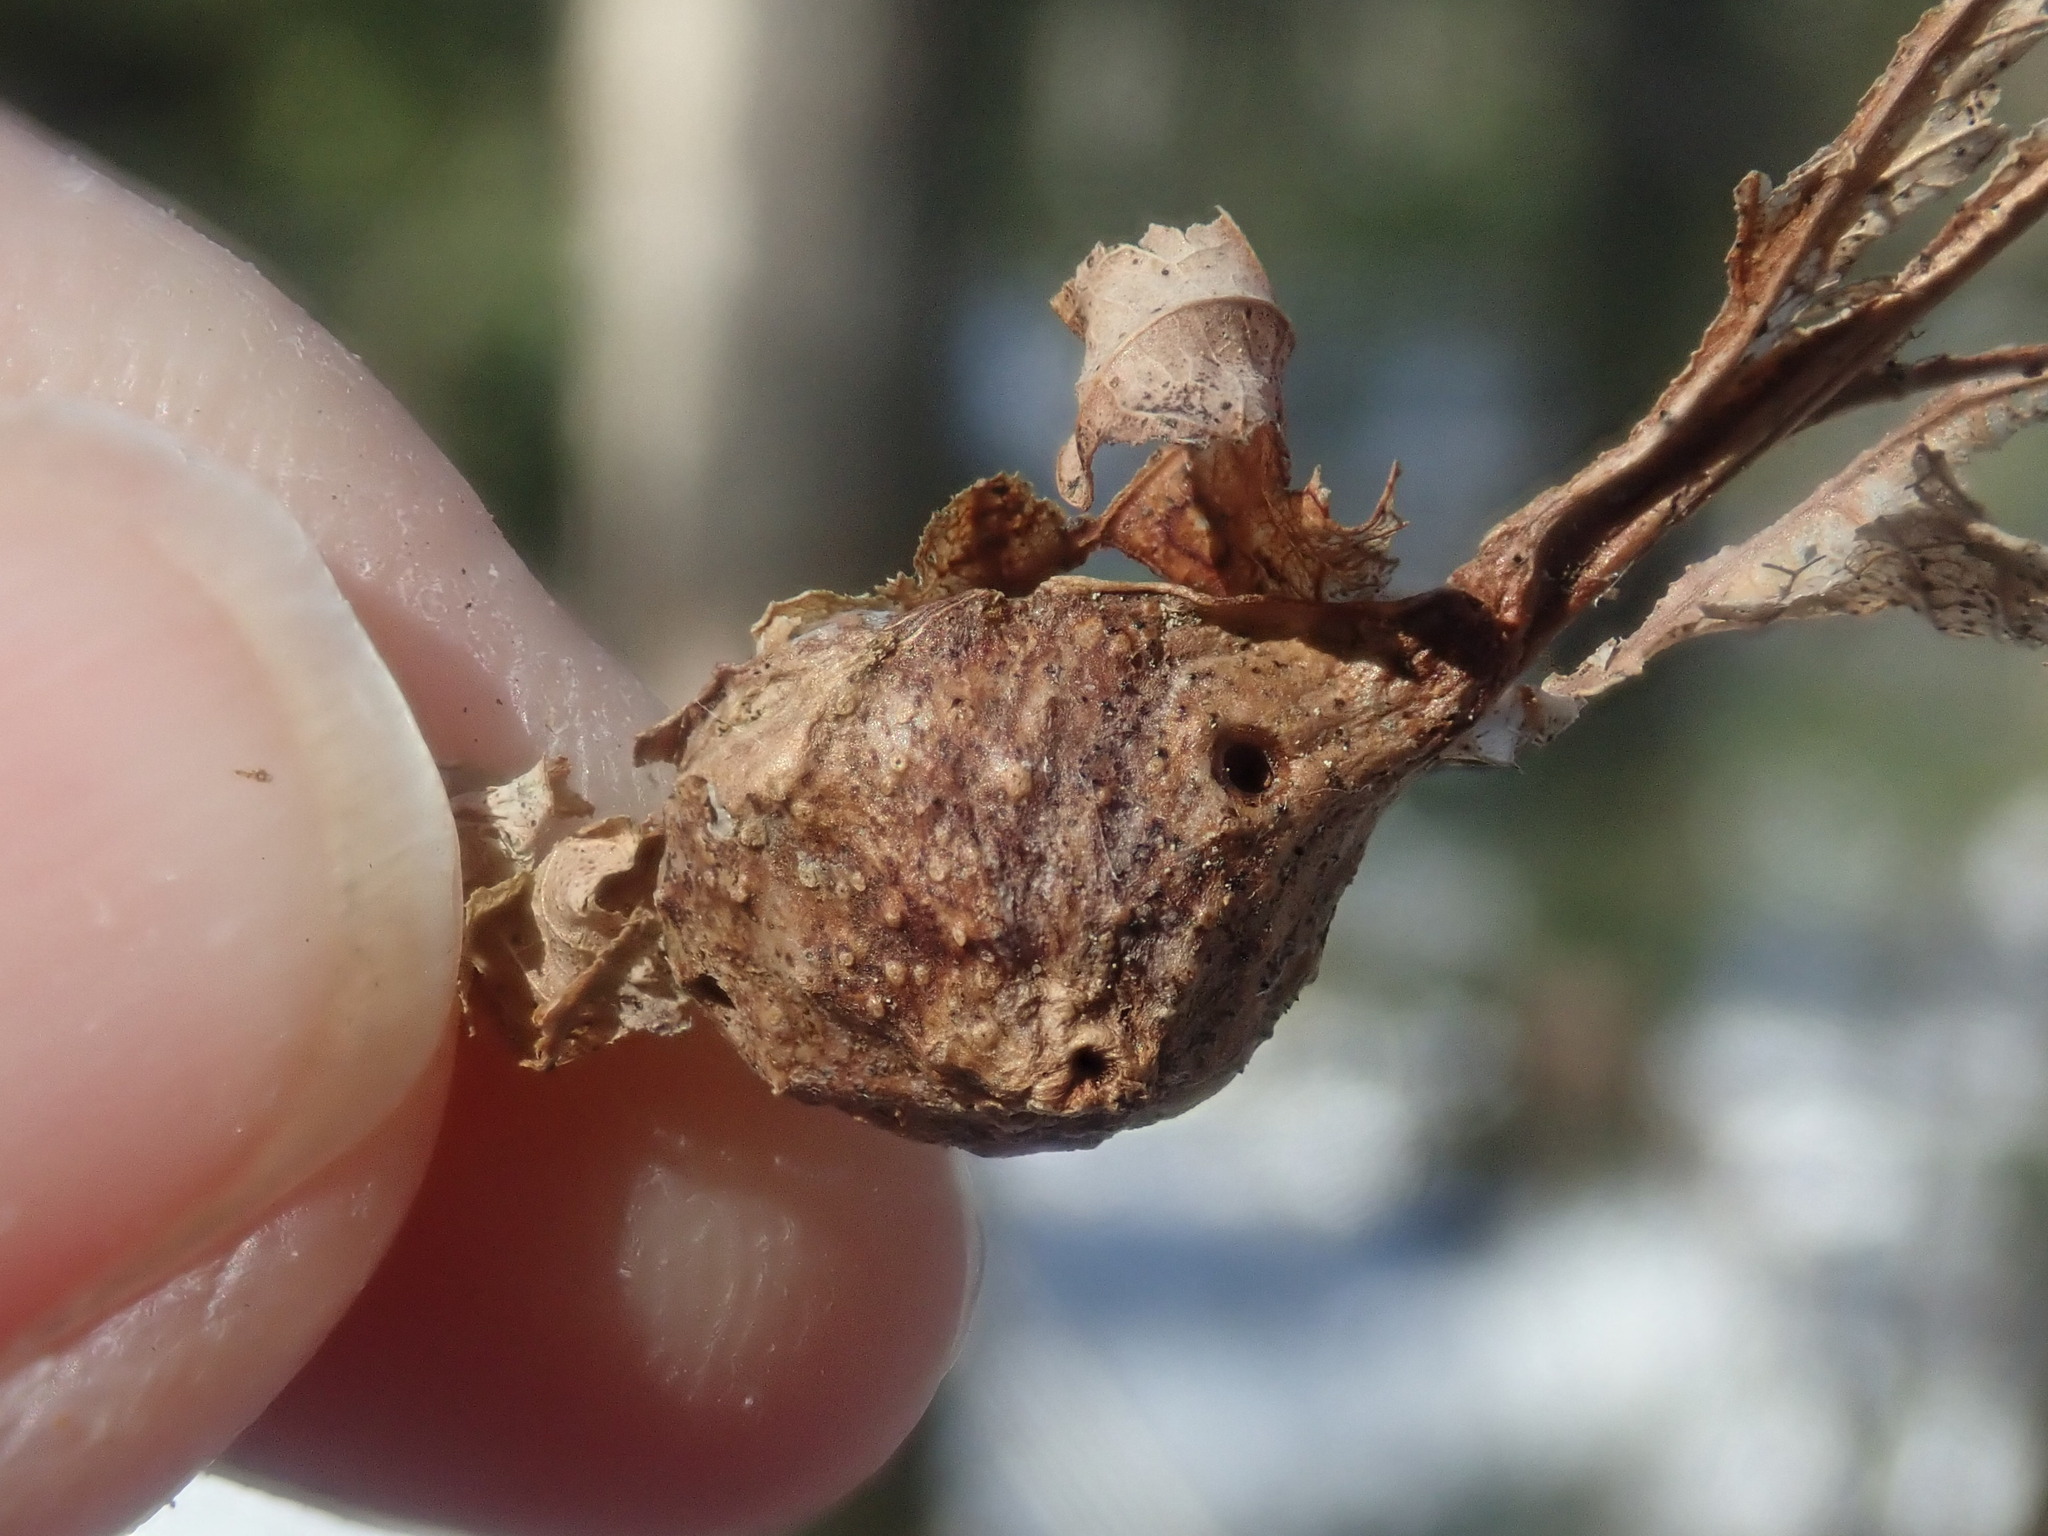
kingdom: Animalia
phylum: Arthropoda
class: Insecta
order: Hymenoptera
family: Cynipidae
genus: Andricus
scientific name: Andricus
